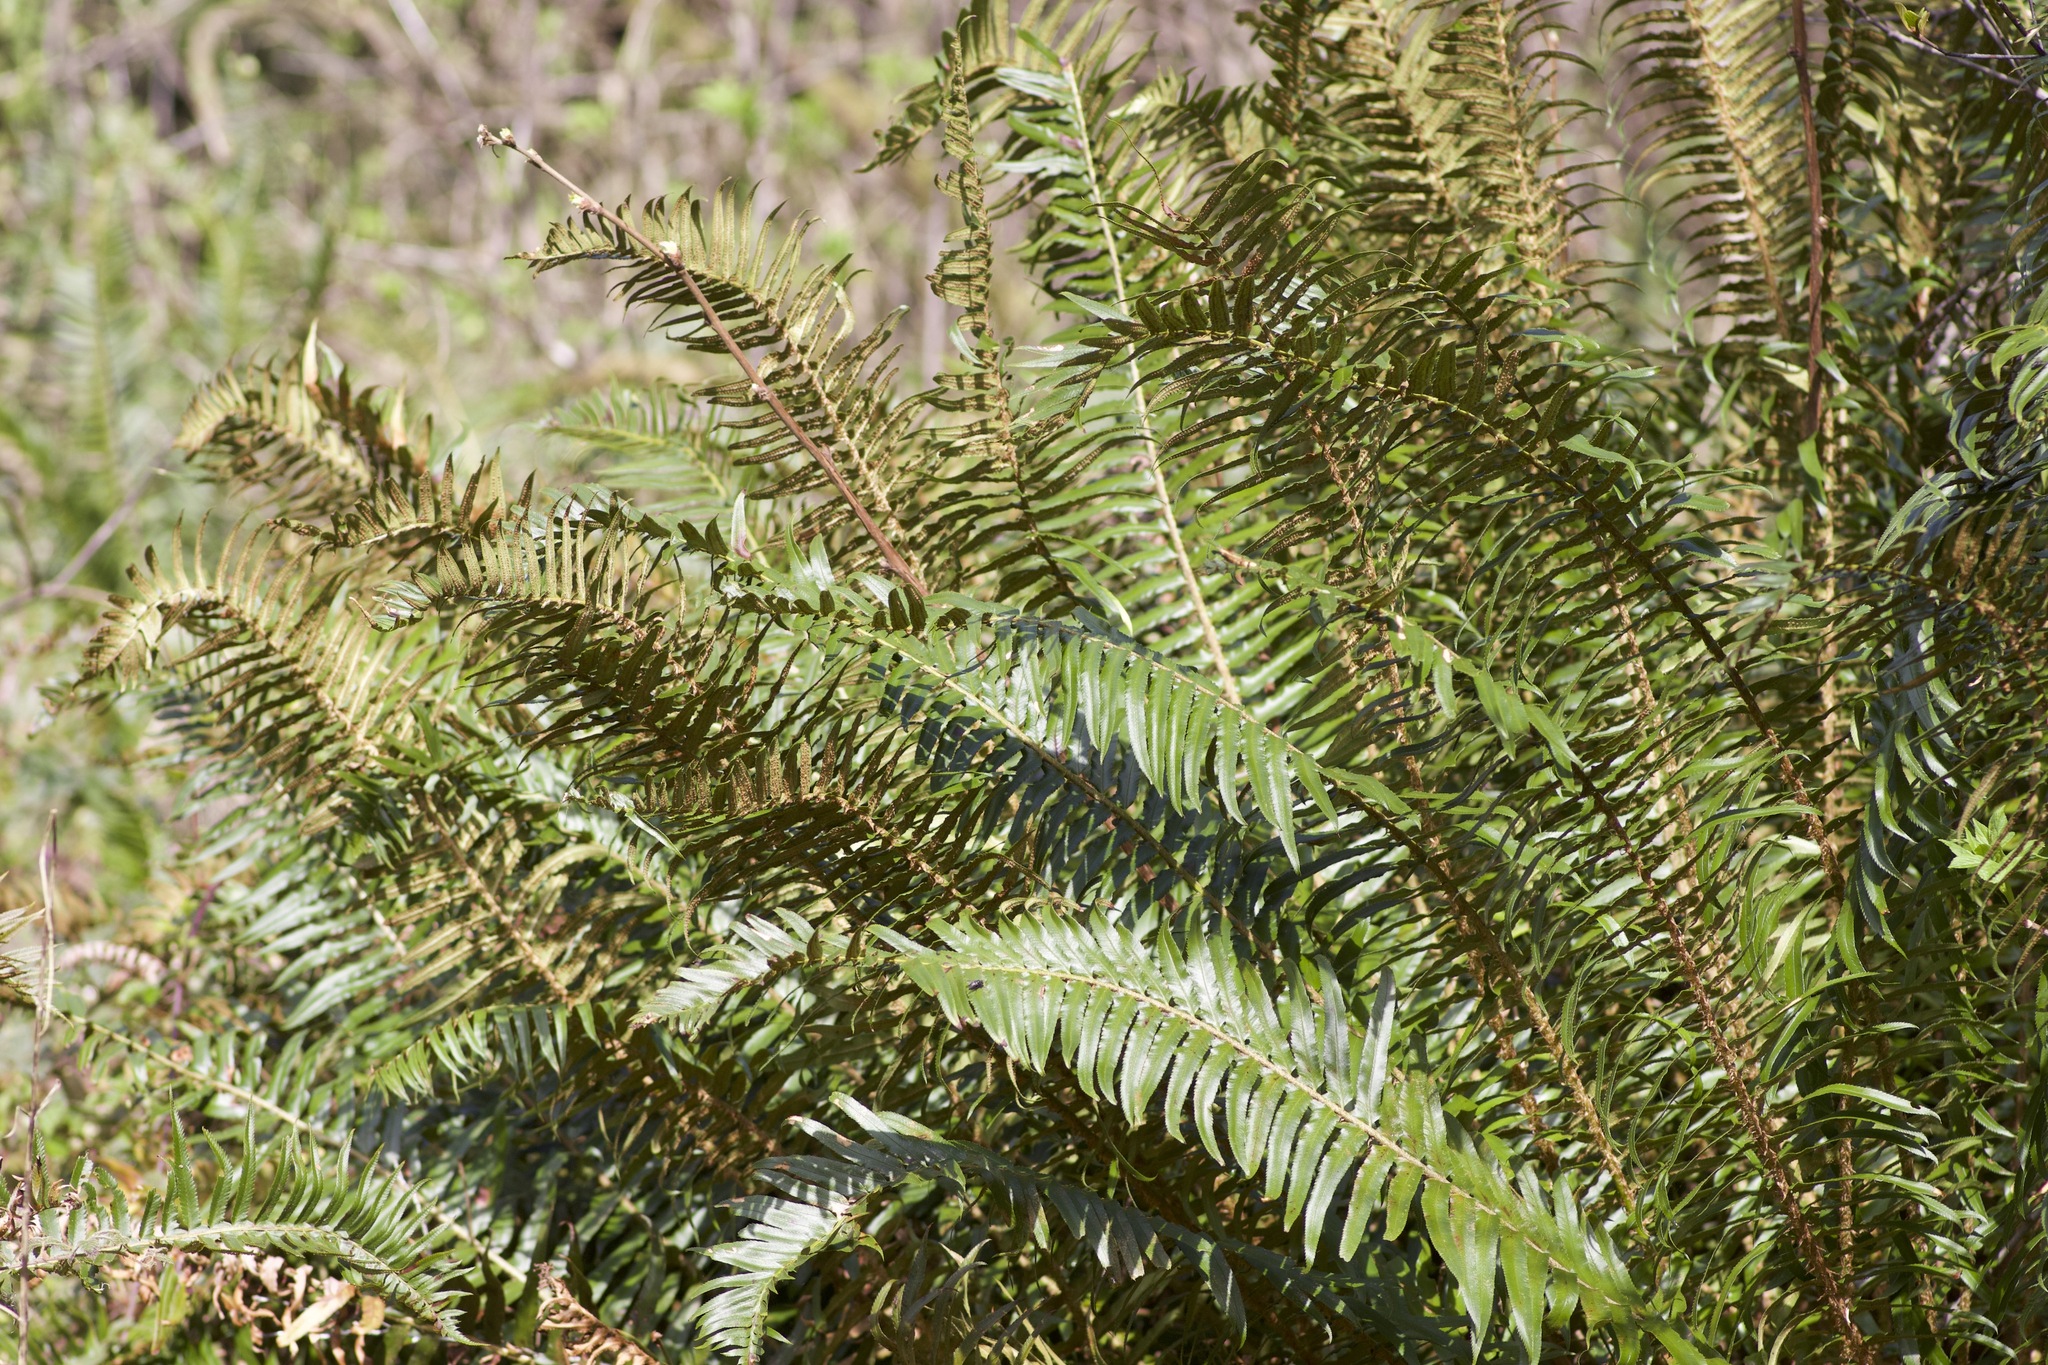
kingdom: Plantae
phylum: Tracheophyta
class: Polypodiopsida
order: Polypodiales
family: Dryopteridaceae
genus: Polystichum
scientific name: Polystichum munitum
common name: Western sword-fern
